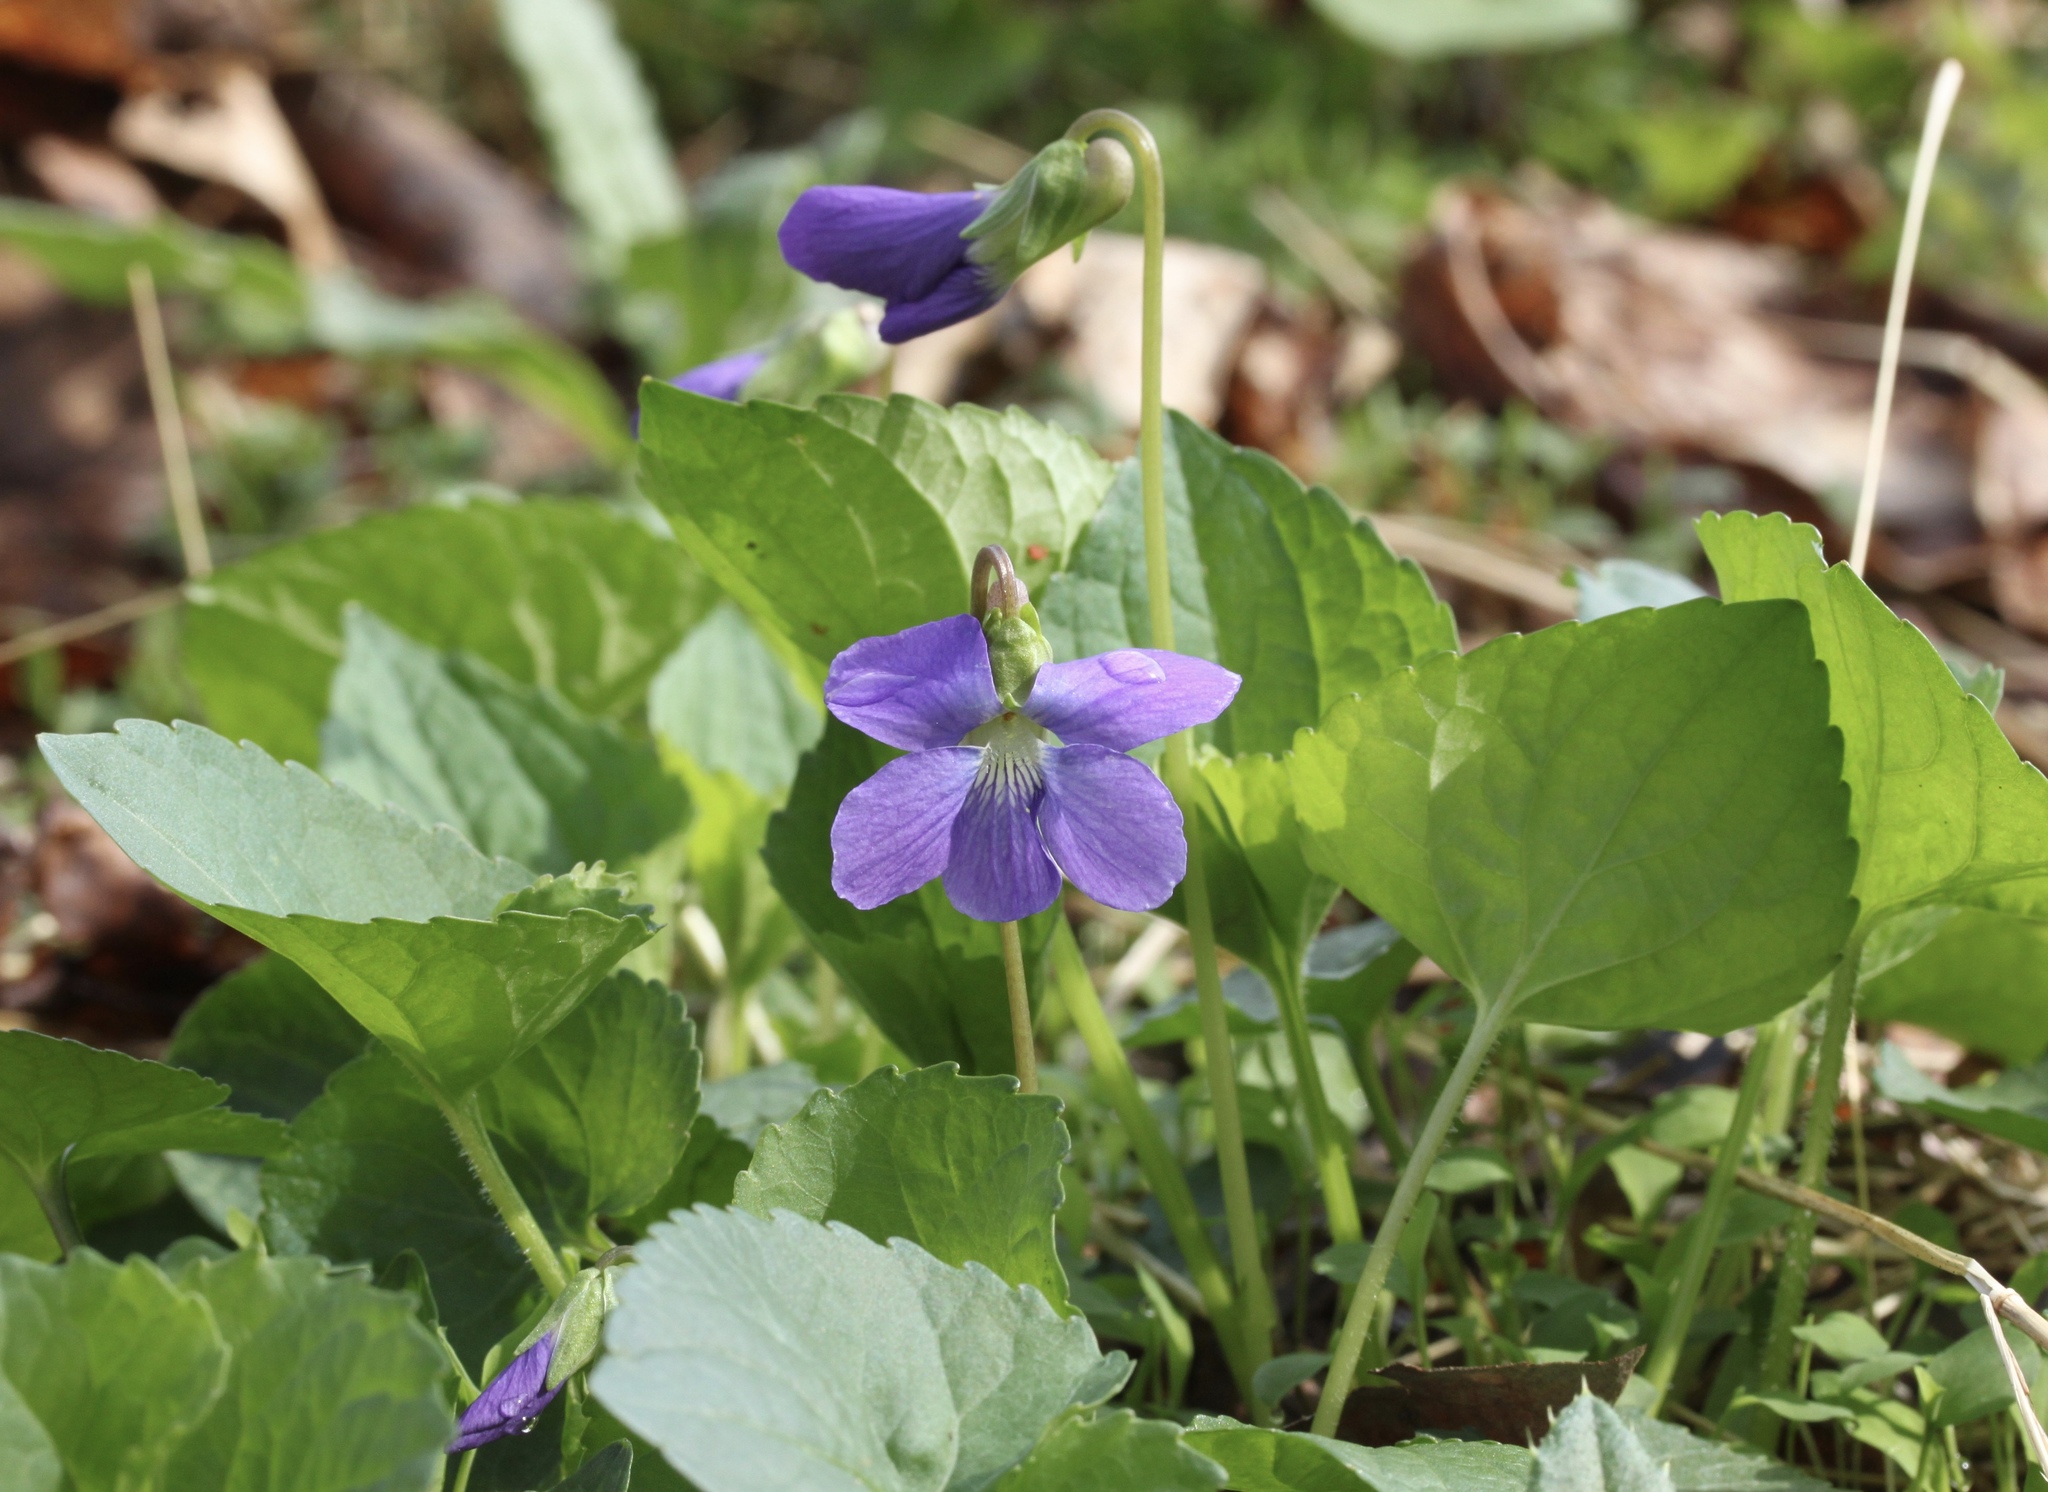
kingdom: Plantae
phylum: Tracheophyta
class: Magnoliopsida
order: Malpighiales
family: Violaceae
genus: Viola
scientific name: Viola sororia
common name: Dooryard violet
